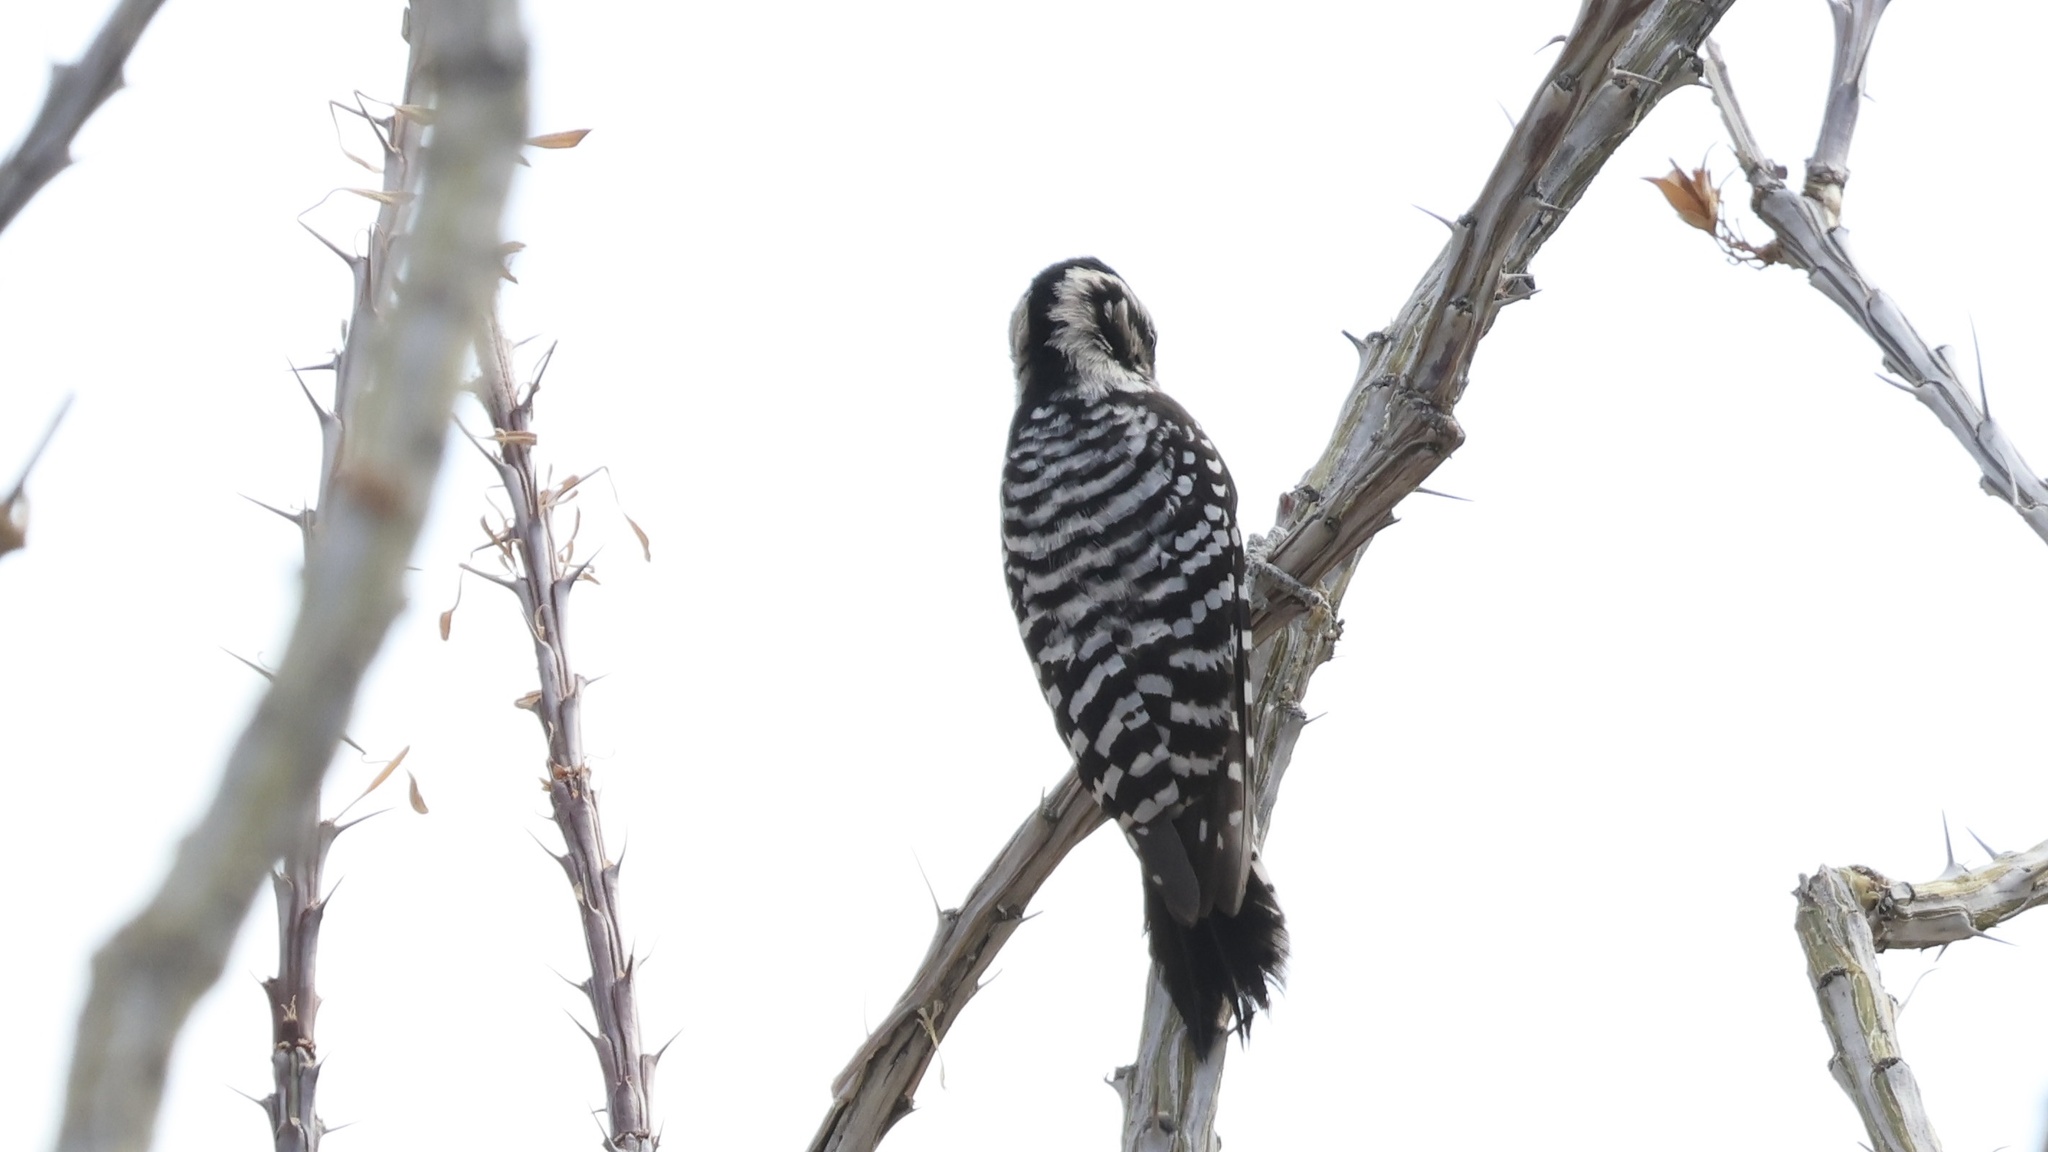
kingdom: Animalia
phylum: Chordata
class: Aves
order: Piciformes
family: Picidae
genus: Dryobates
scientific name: Dryobates scalaris
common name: Ladder-backed woodpecker
